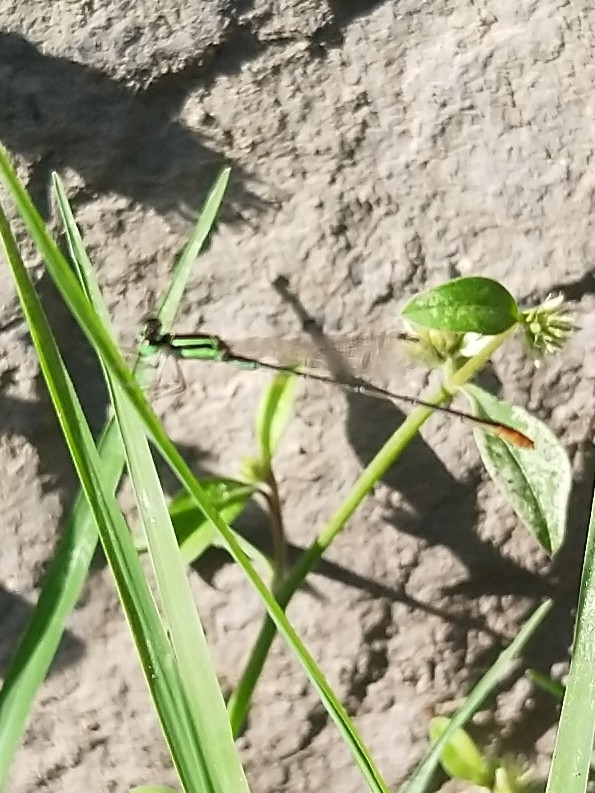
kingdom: Animalia
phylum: Arthropoda
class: Insecta
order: Odonata
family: Coenagrionidae
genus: Agriocnemis
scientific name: Agriocnemis pygmaea
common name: Pygmy wisp
